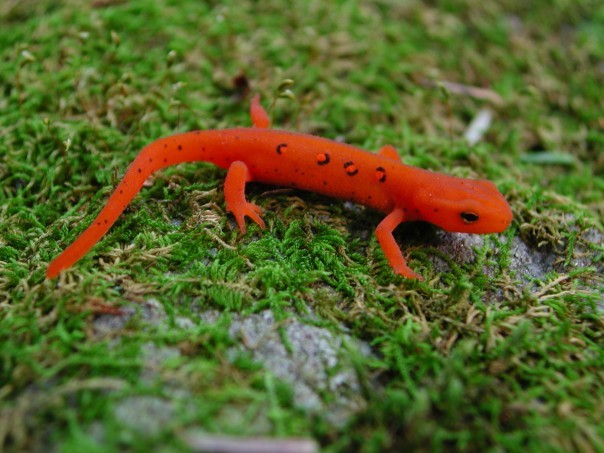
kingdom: Animalia
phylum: Chordata
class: Amphibia
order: Caudata
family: Salamandridae
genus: Notophthalmus
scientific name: Notophthalmus viridescens
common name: Eastern newt
